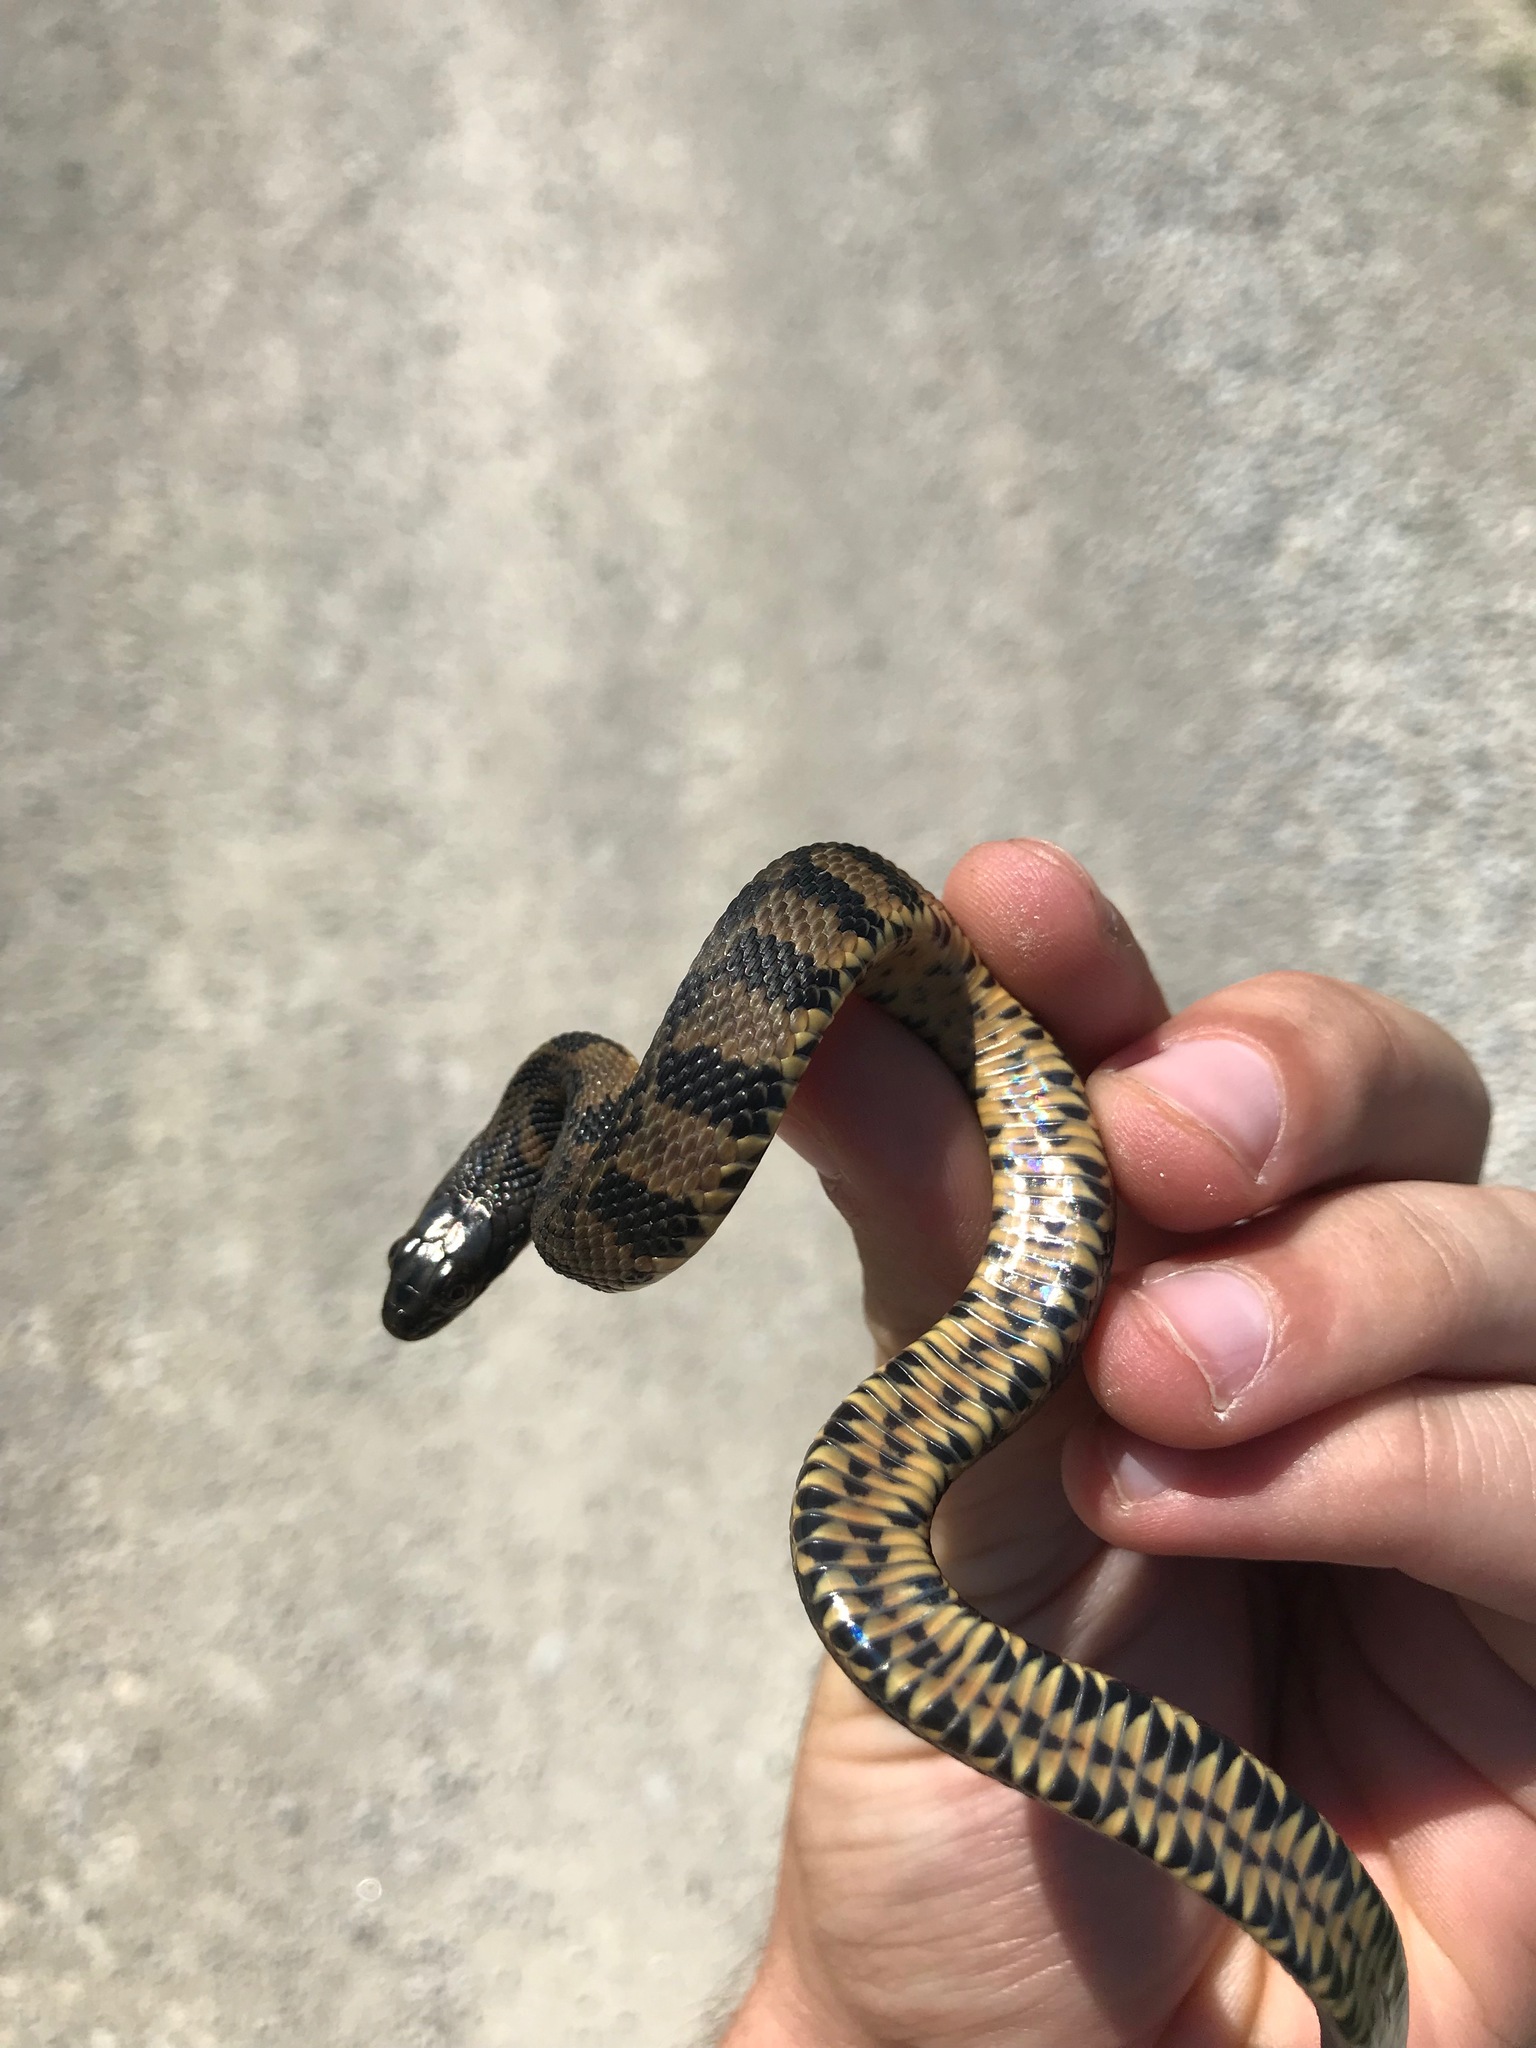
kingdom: Animalia
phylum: Chordata
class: Squamata
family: Colubridae
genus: Nerodia
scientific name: Nerodia rhombifer
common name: Diamondback water snake
